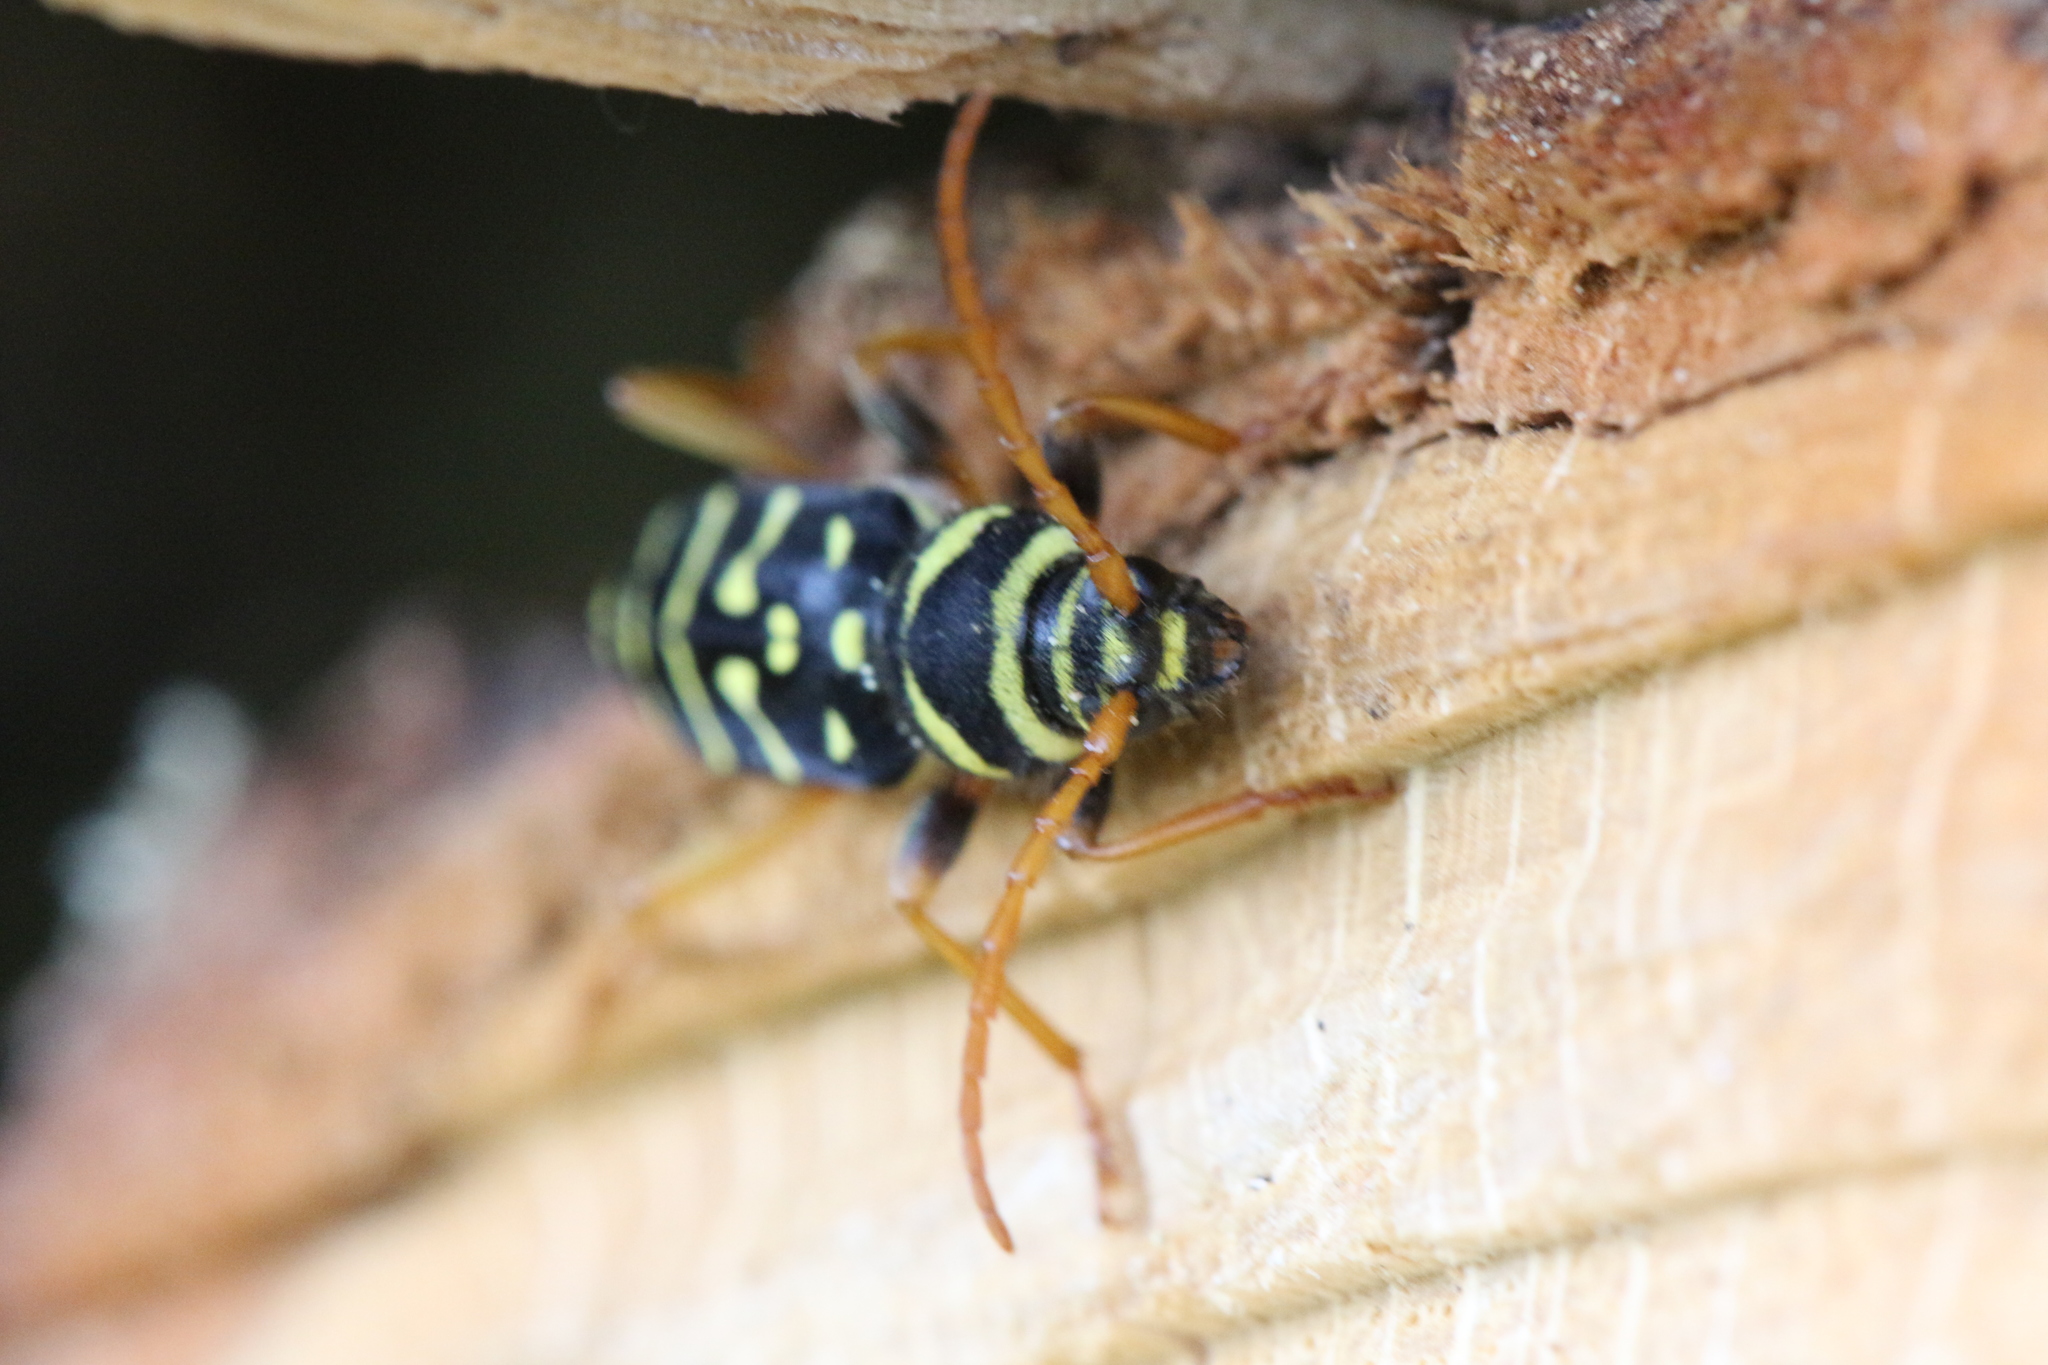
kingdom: Animalia
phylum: Arthropoda
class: Insecta
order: Coleoptera
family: Cerambycidae
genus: Plagionotus
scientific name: Plagionotus arcuatus
